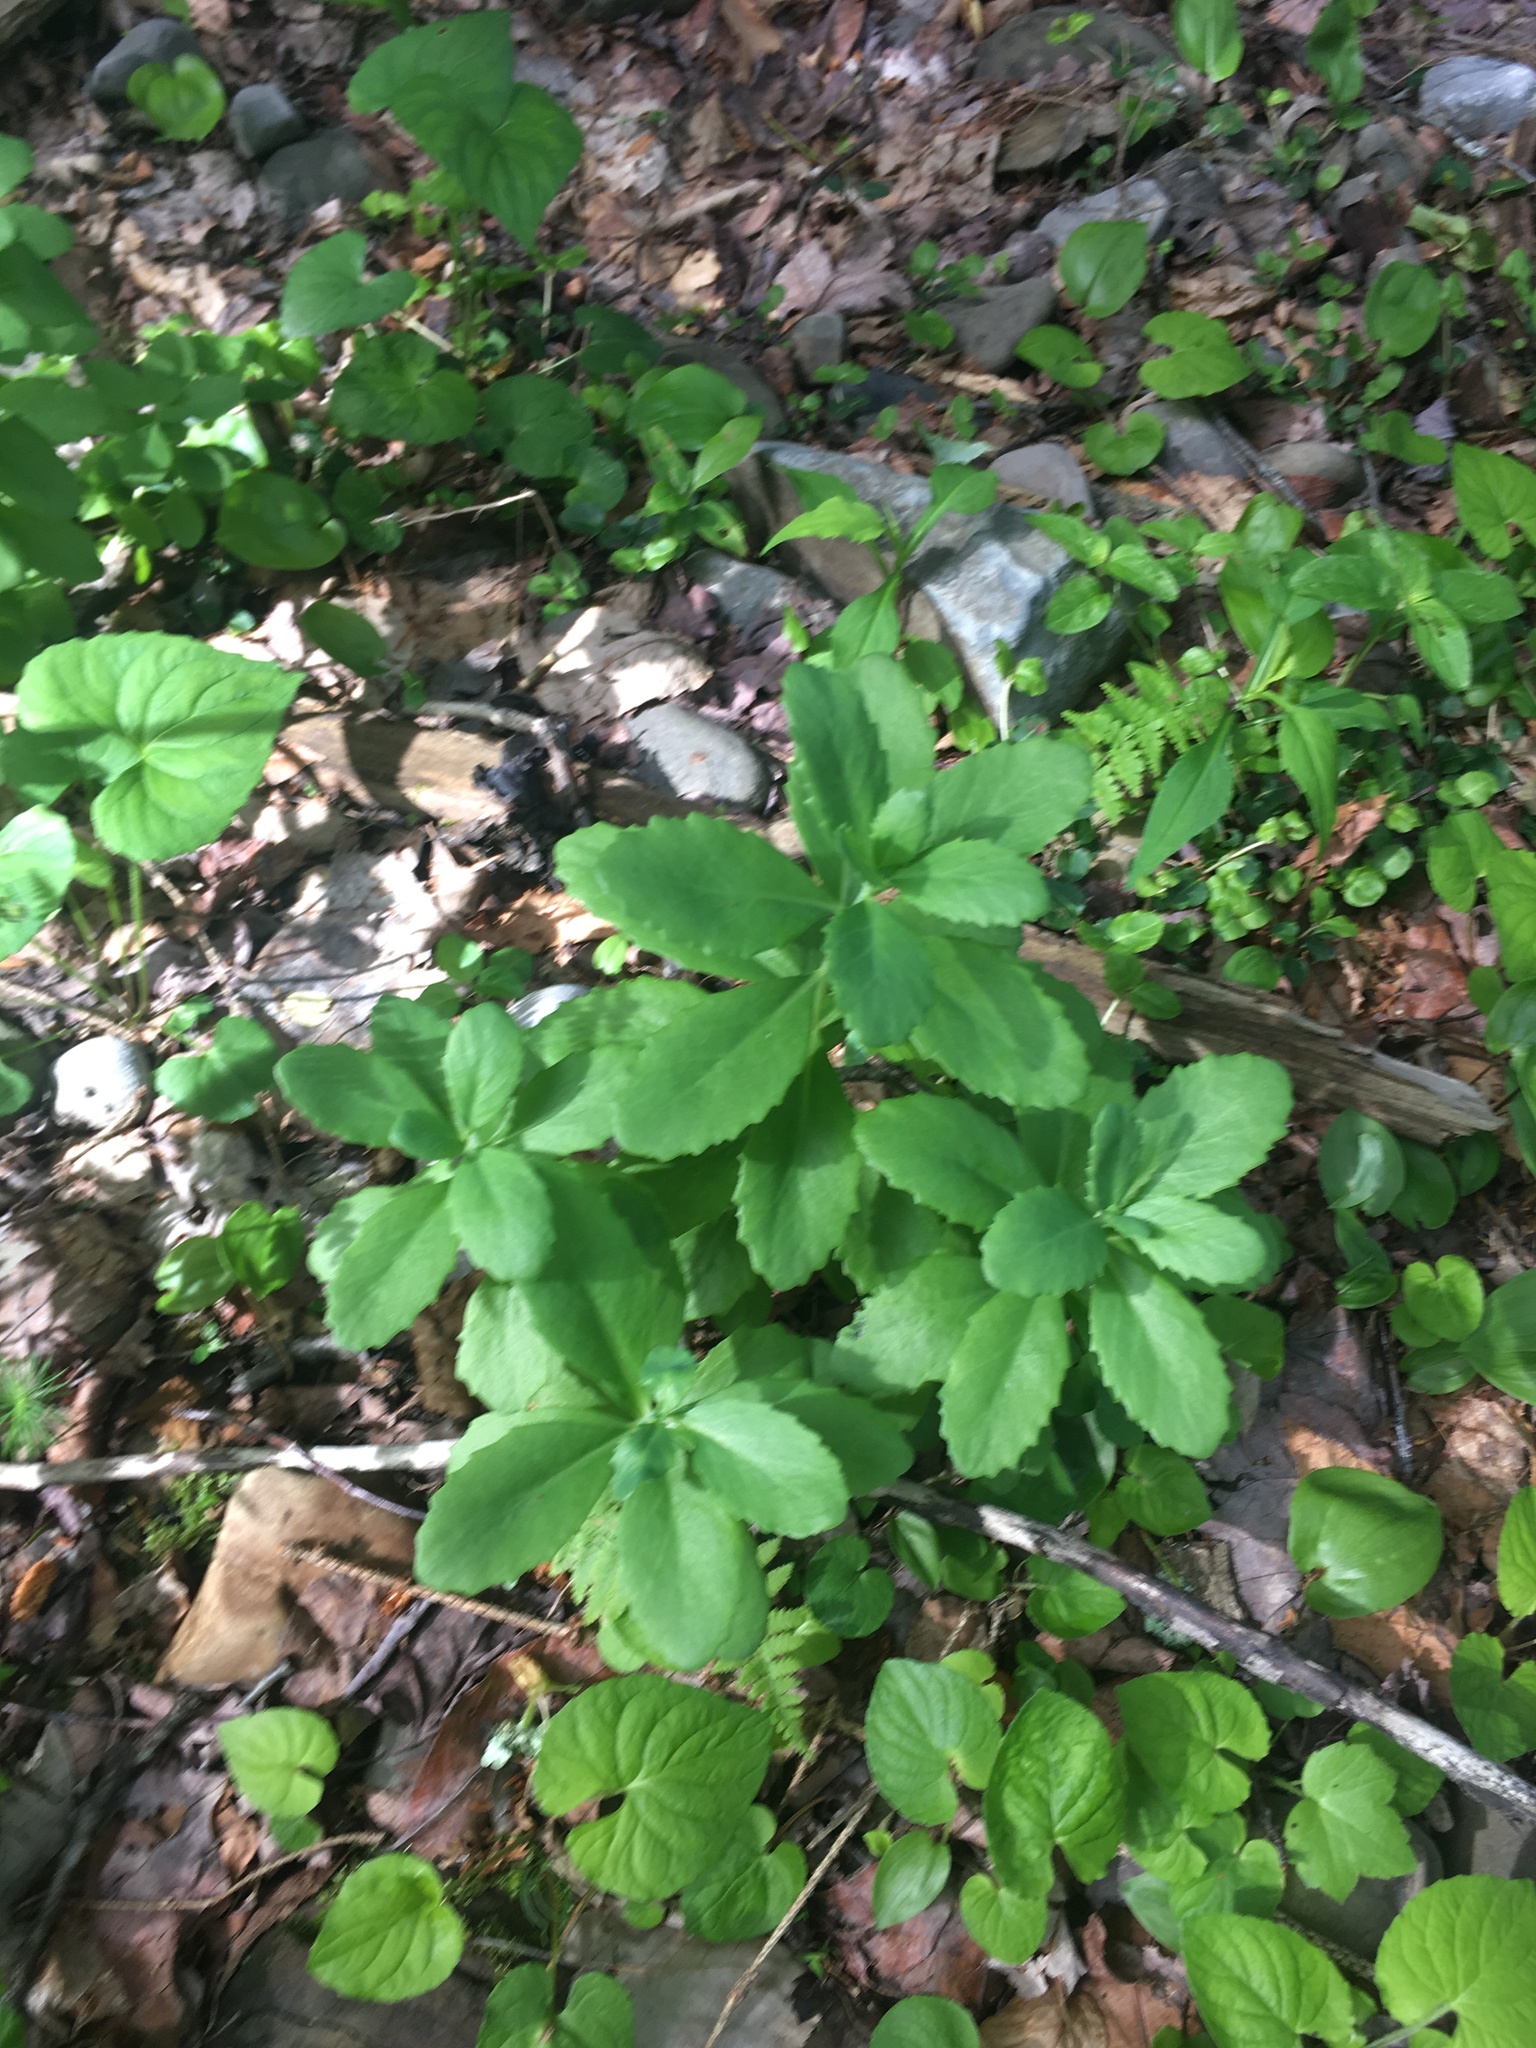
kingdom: Plantae
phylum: Tracheophyta
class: Magnoliopsida
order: Saxifragales
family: Crassulaceae
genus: Hylotelephium
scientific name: Hylotelephium telephium
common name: Live-forever
